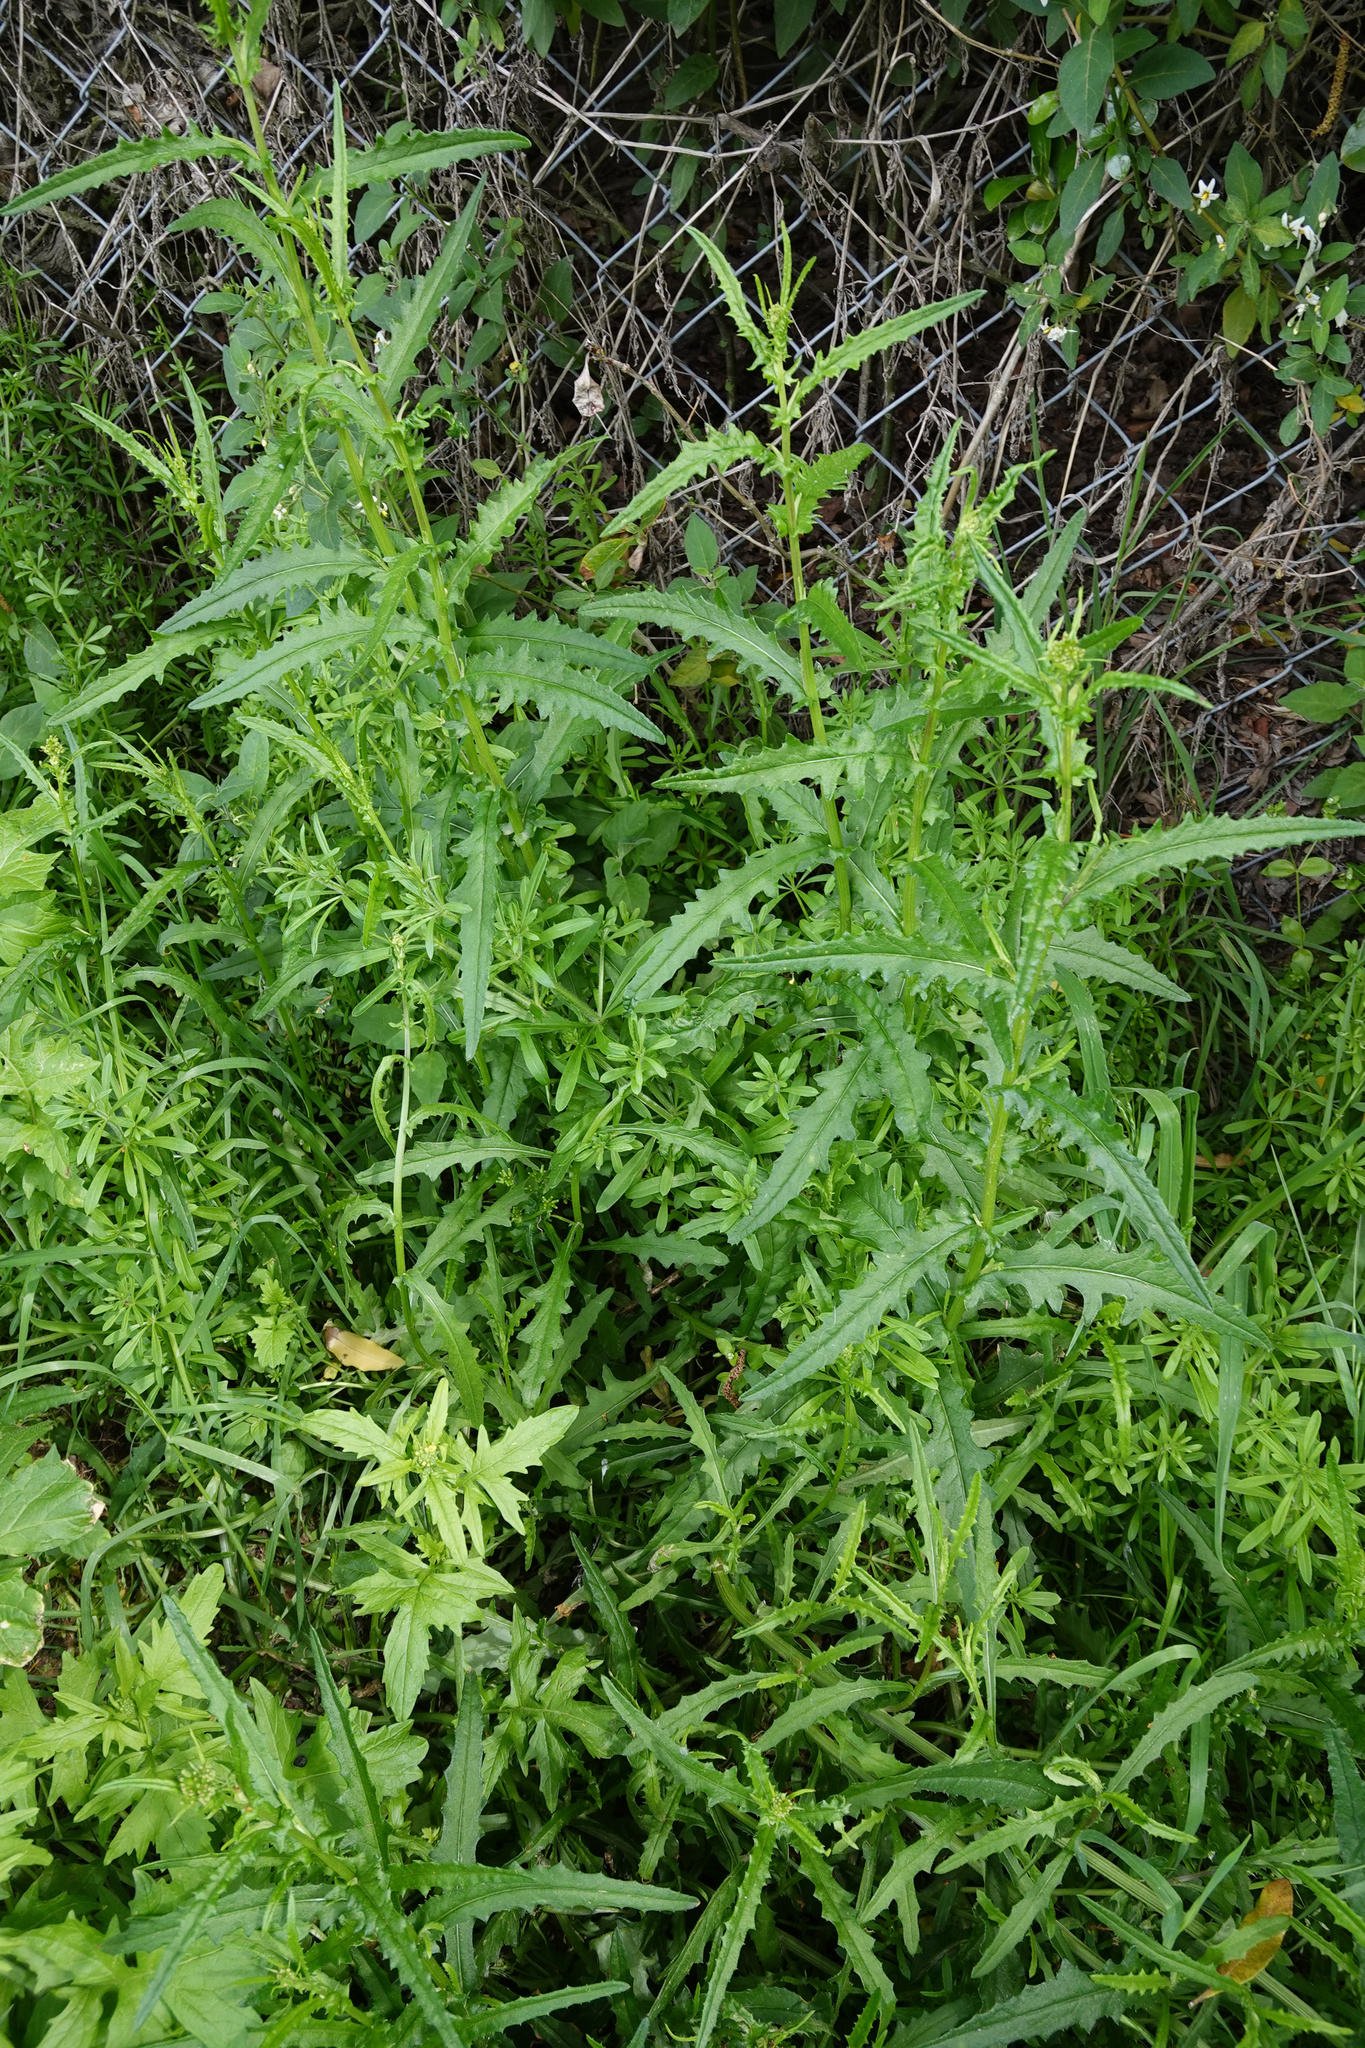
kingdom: Plantae
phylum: Tracheophyta
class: Magnoliopsida
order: Asterales
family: Asteraceae
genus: Senecio
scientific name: Senecio hispidulus
